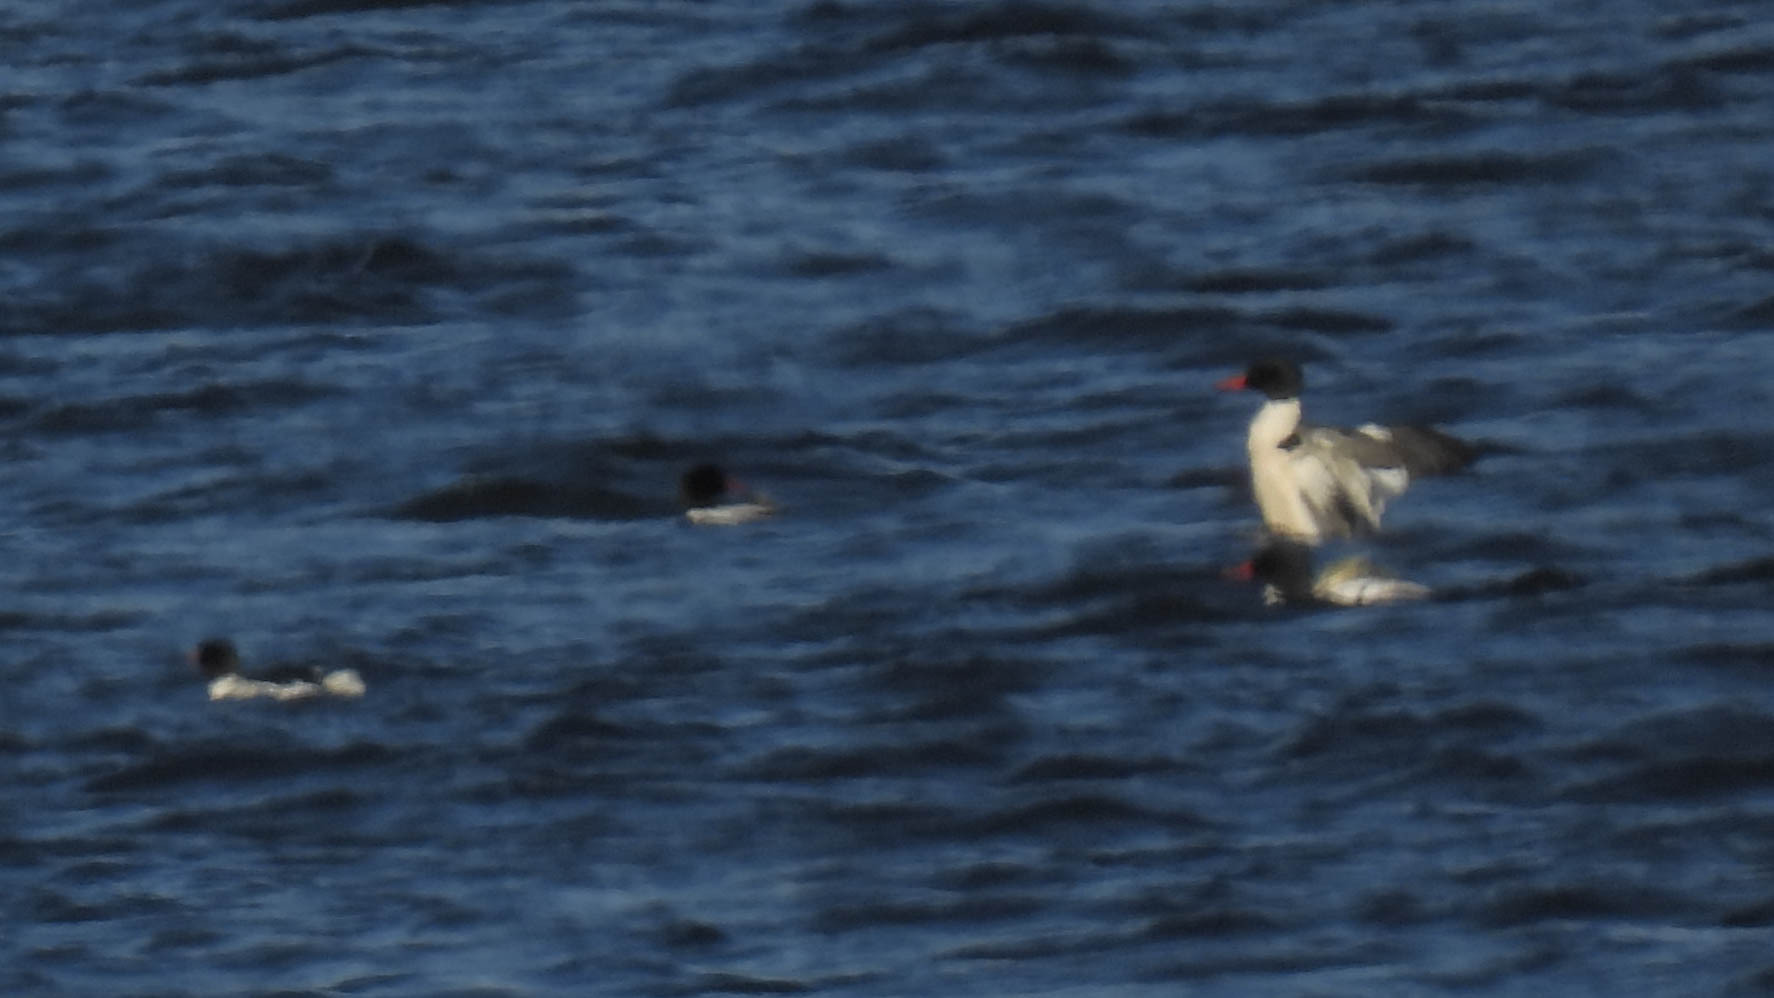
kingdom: Animalia
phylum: Chordata
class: Aves
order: Anseriformes
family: Anatidae
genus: Mergus
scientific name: Mergus merganser
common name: Common merganser
